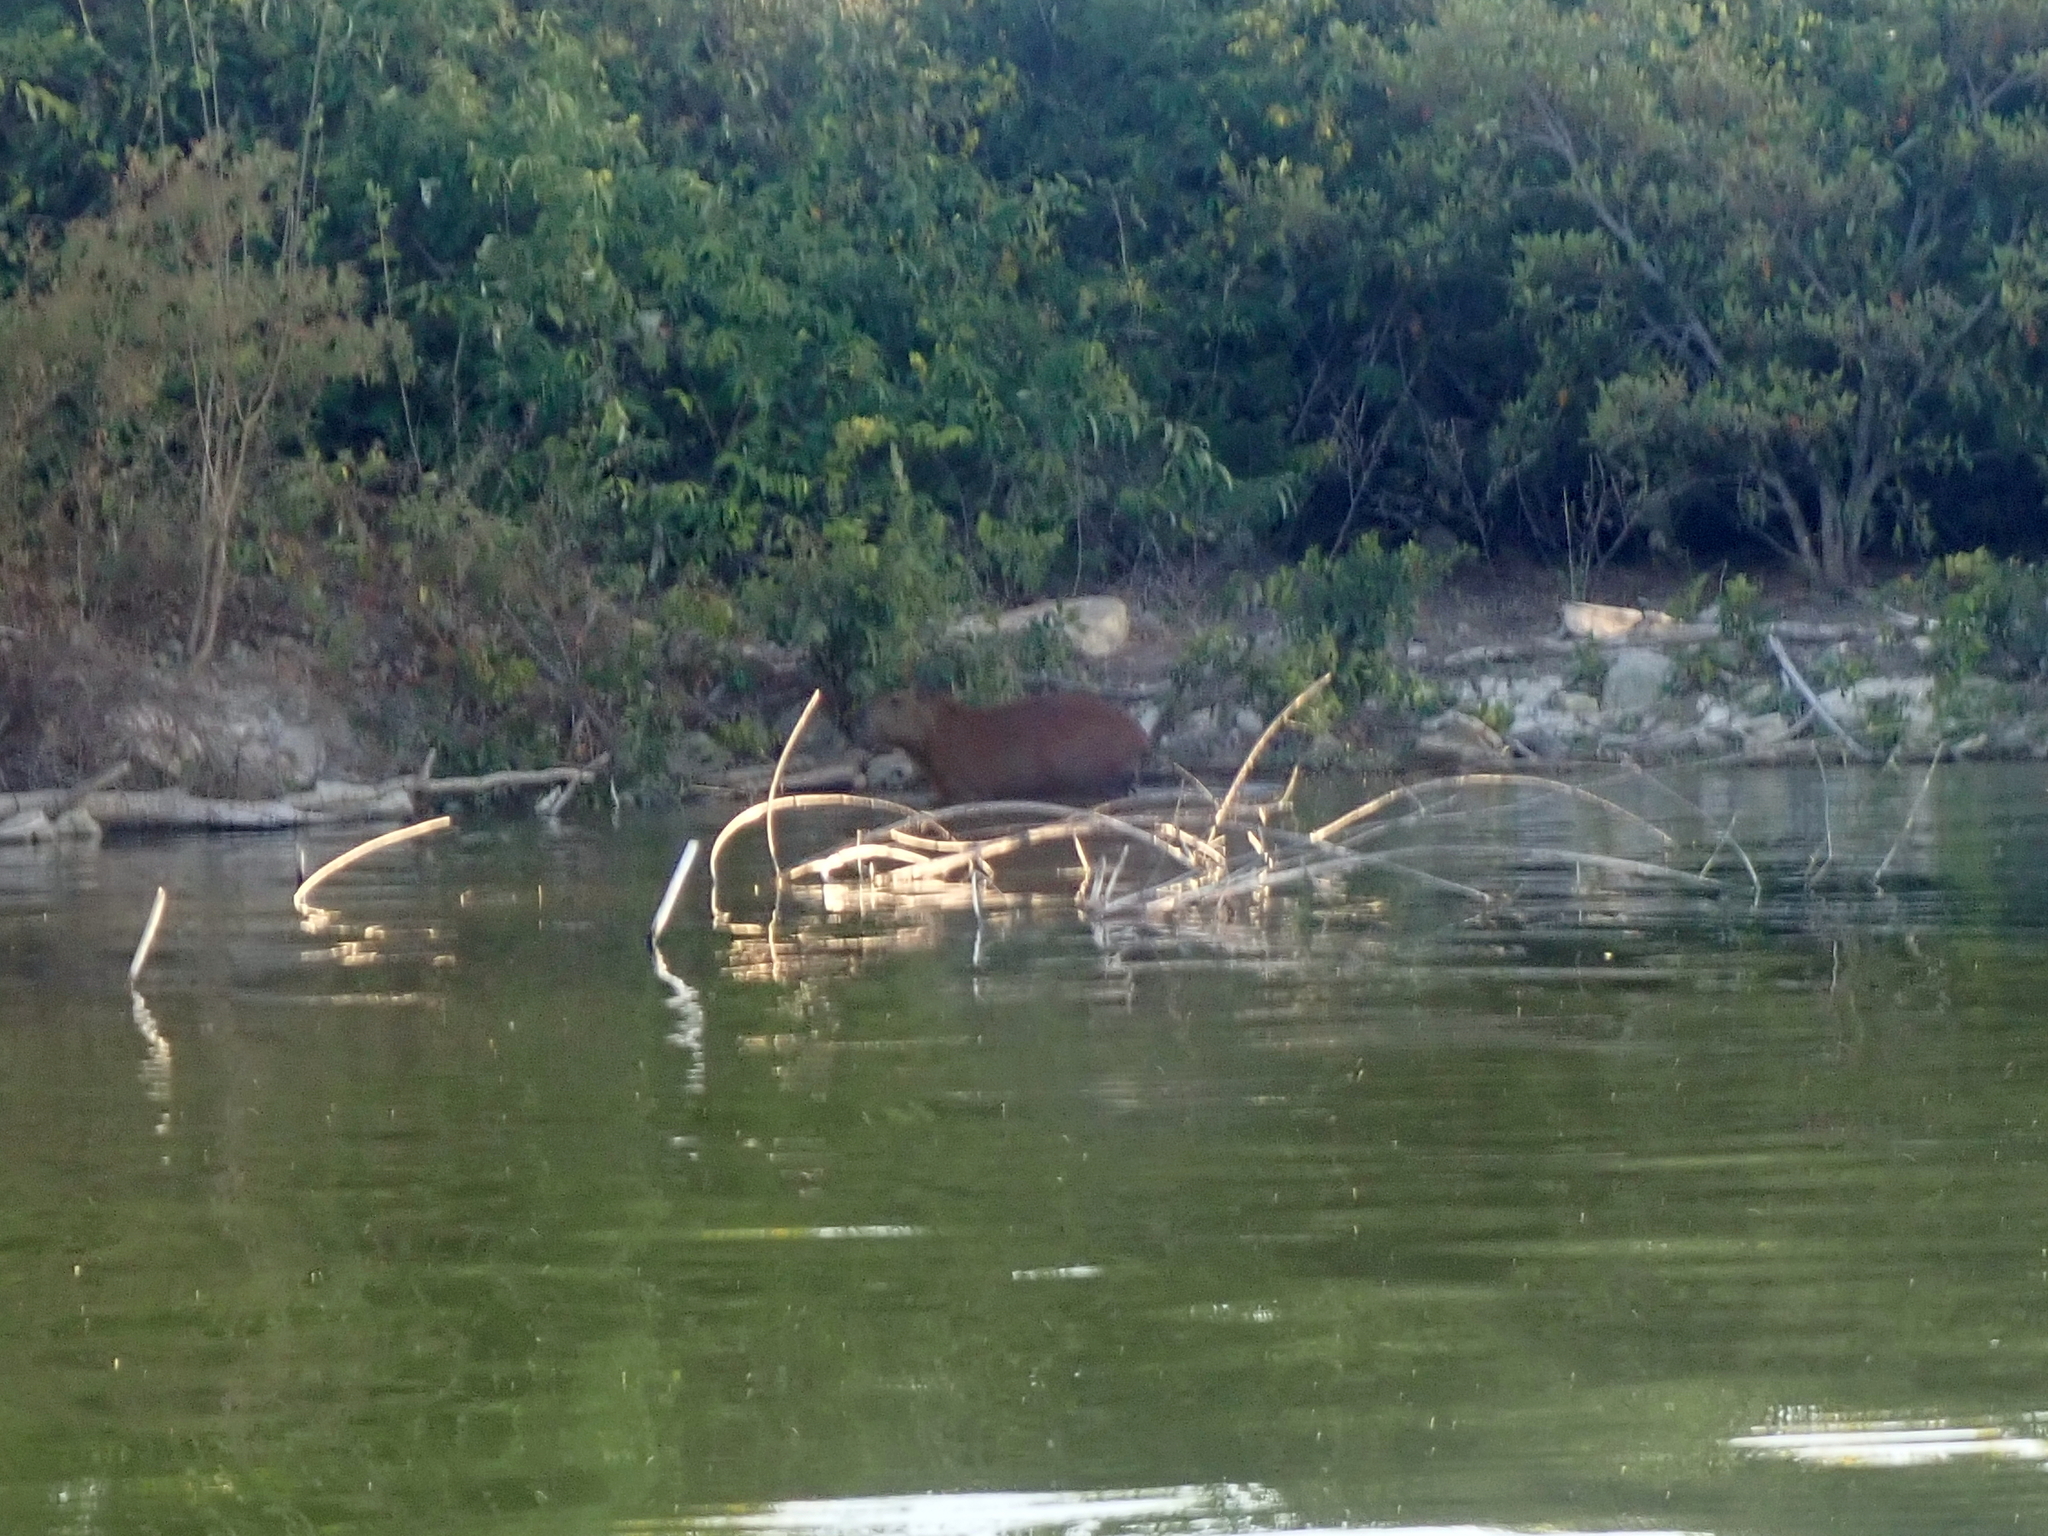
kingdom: Animalia
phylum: Chordata
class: Mammalia
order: Rodentia
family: Caviidae
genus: Hydrochoerus
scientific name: Hydrochoerus hydrochaeris
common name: Capybara
